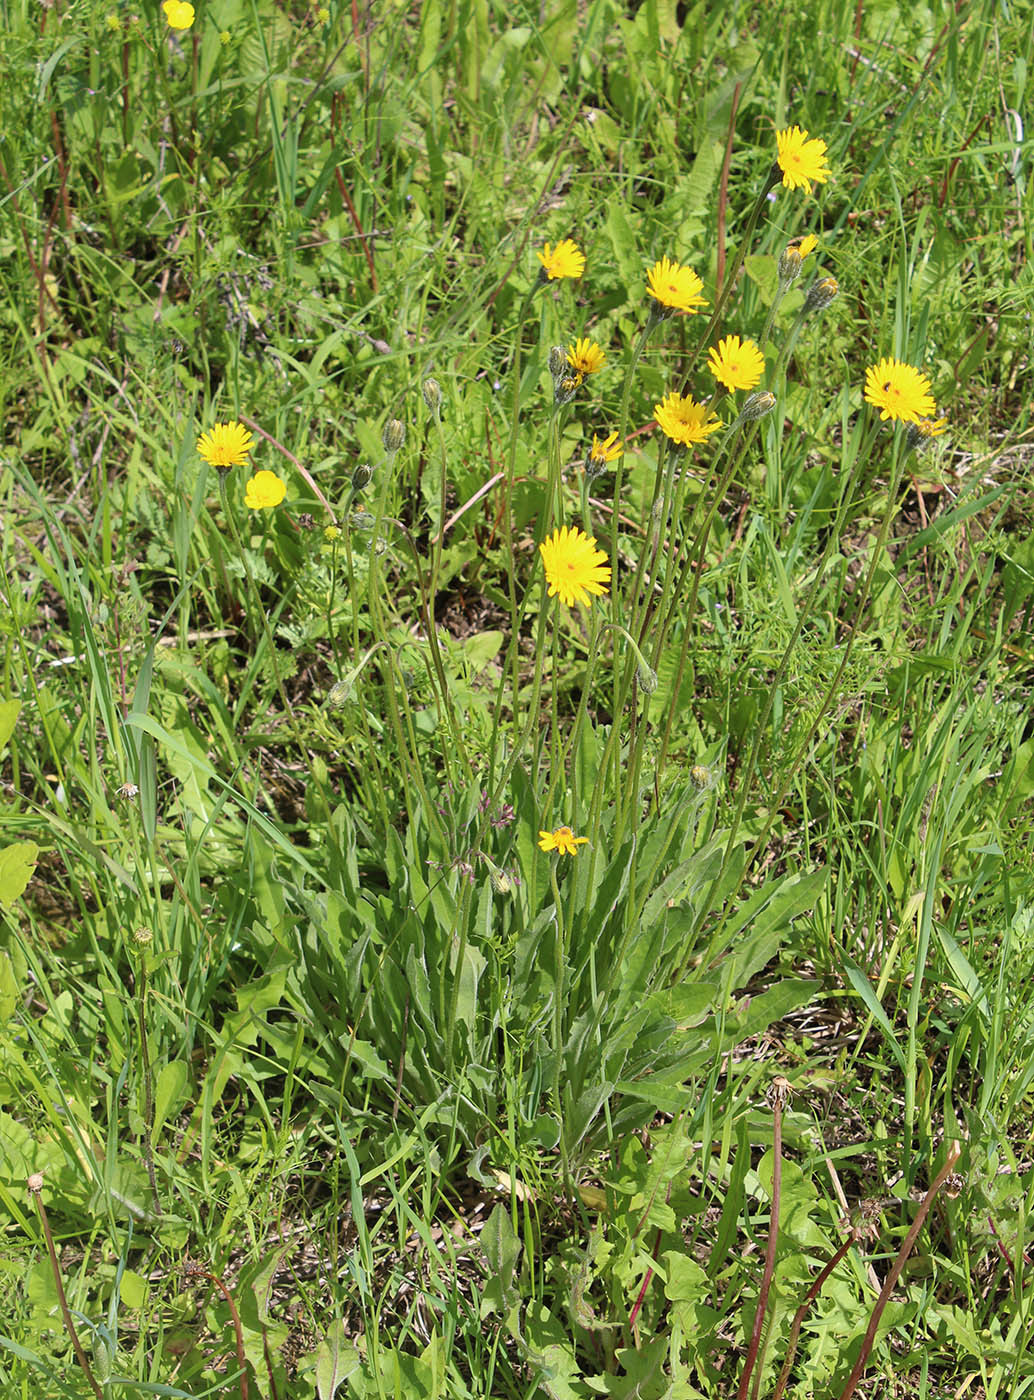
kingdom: Plantae
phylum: Tracheophyta
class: Magnoliopsida
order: Asterales
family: Asteraceae
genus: Leontodon
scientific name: Leontodon hispidus
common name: Rough hawkbit
